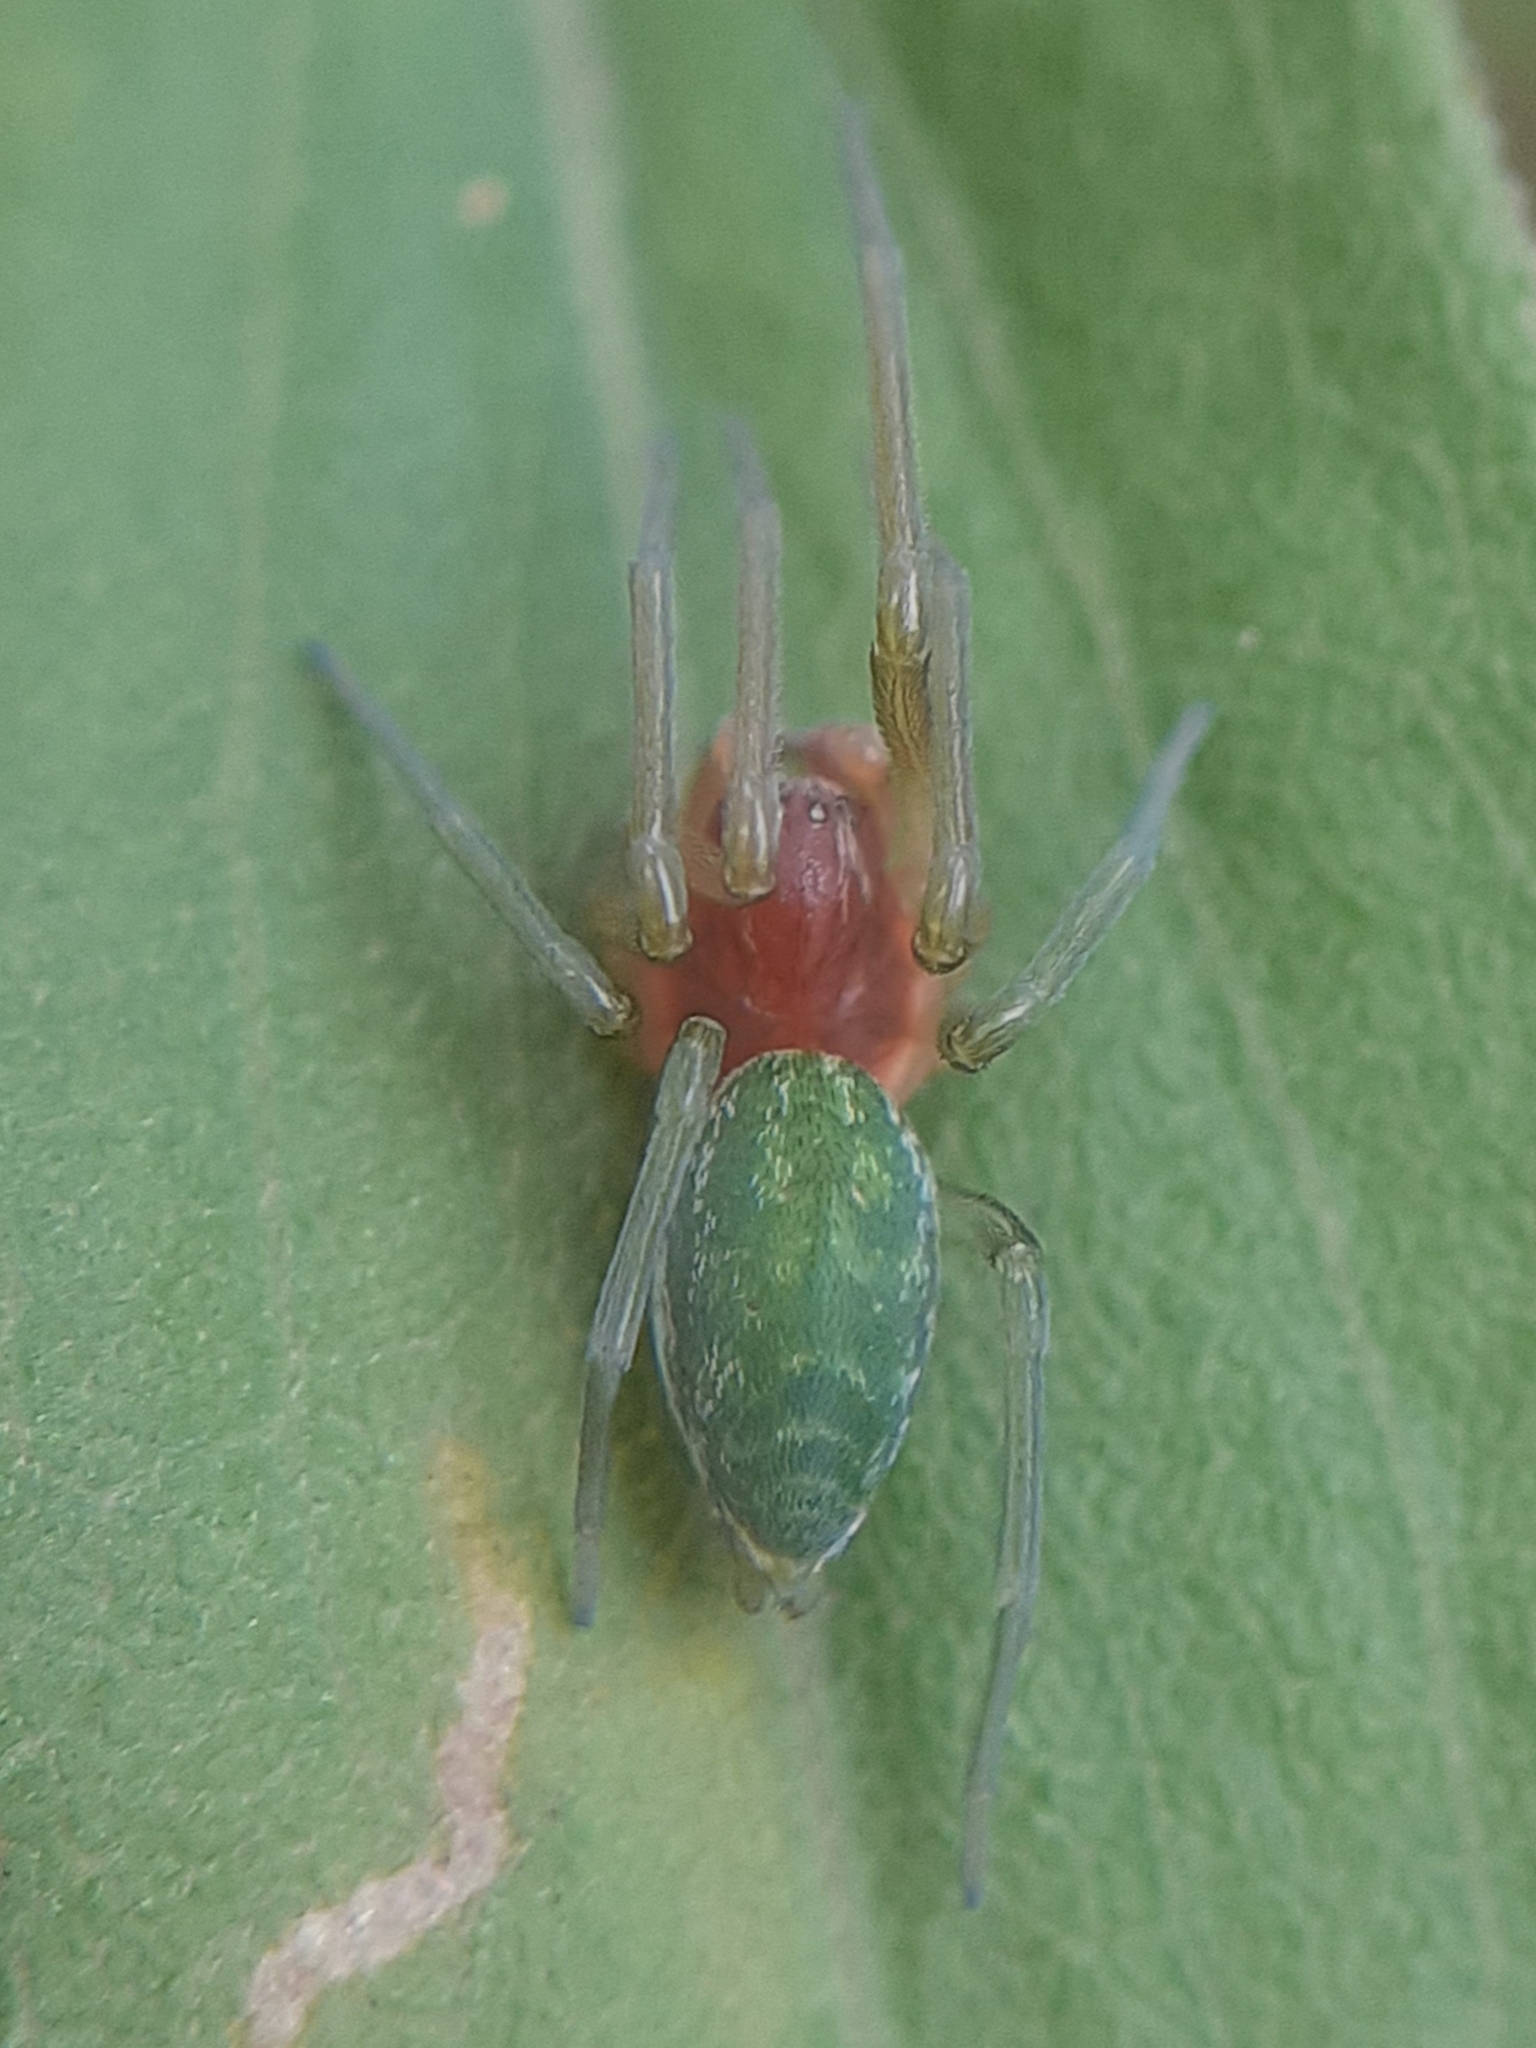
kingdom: Animalia
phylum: Arthropoda
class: Arachnida
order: Araneae
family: Dictynidae
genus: Nigma
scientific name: Nigma walckenaeri
